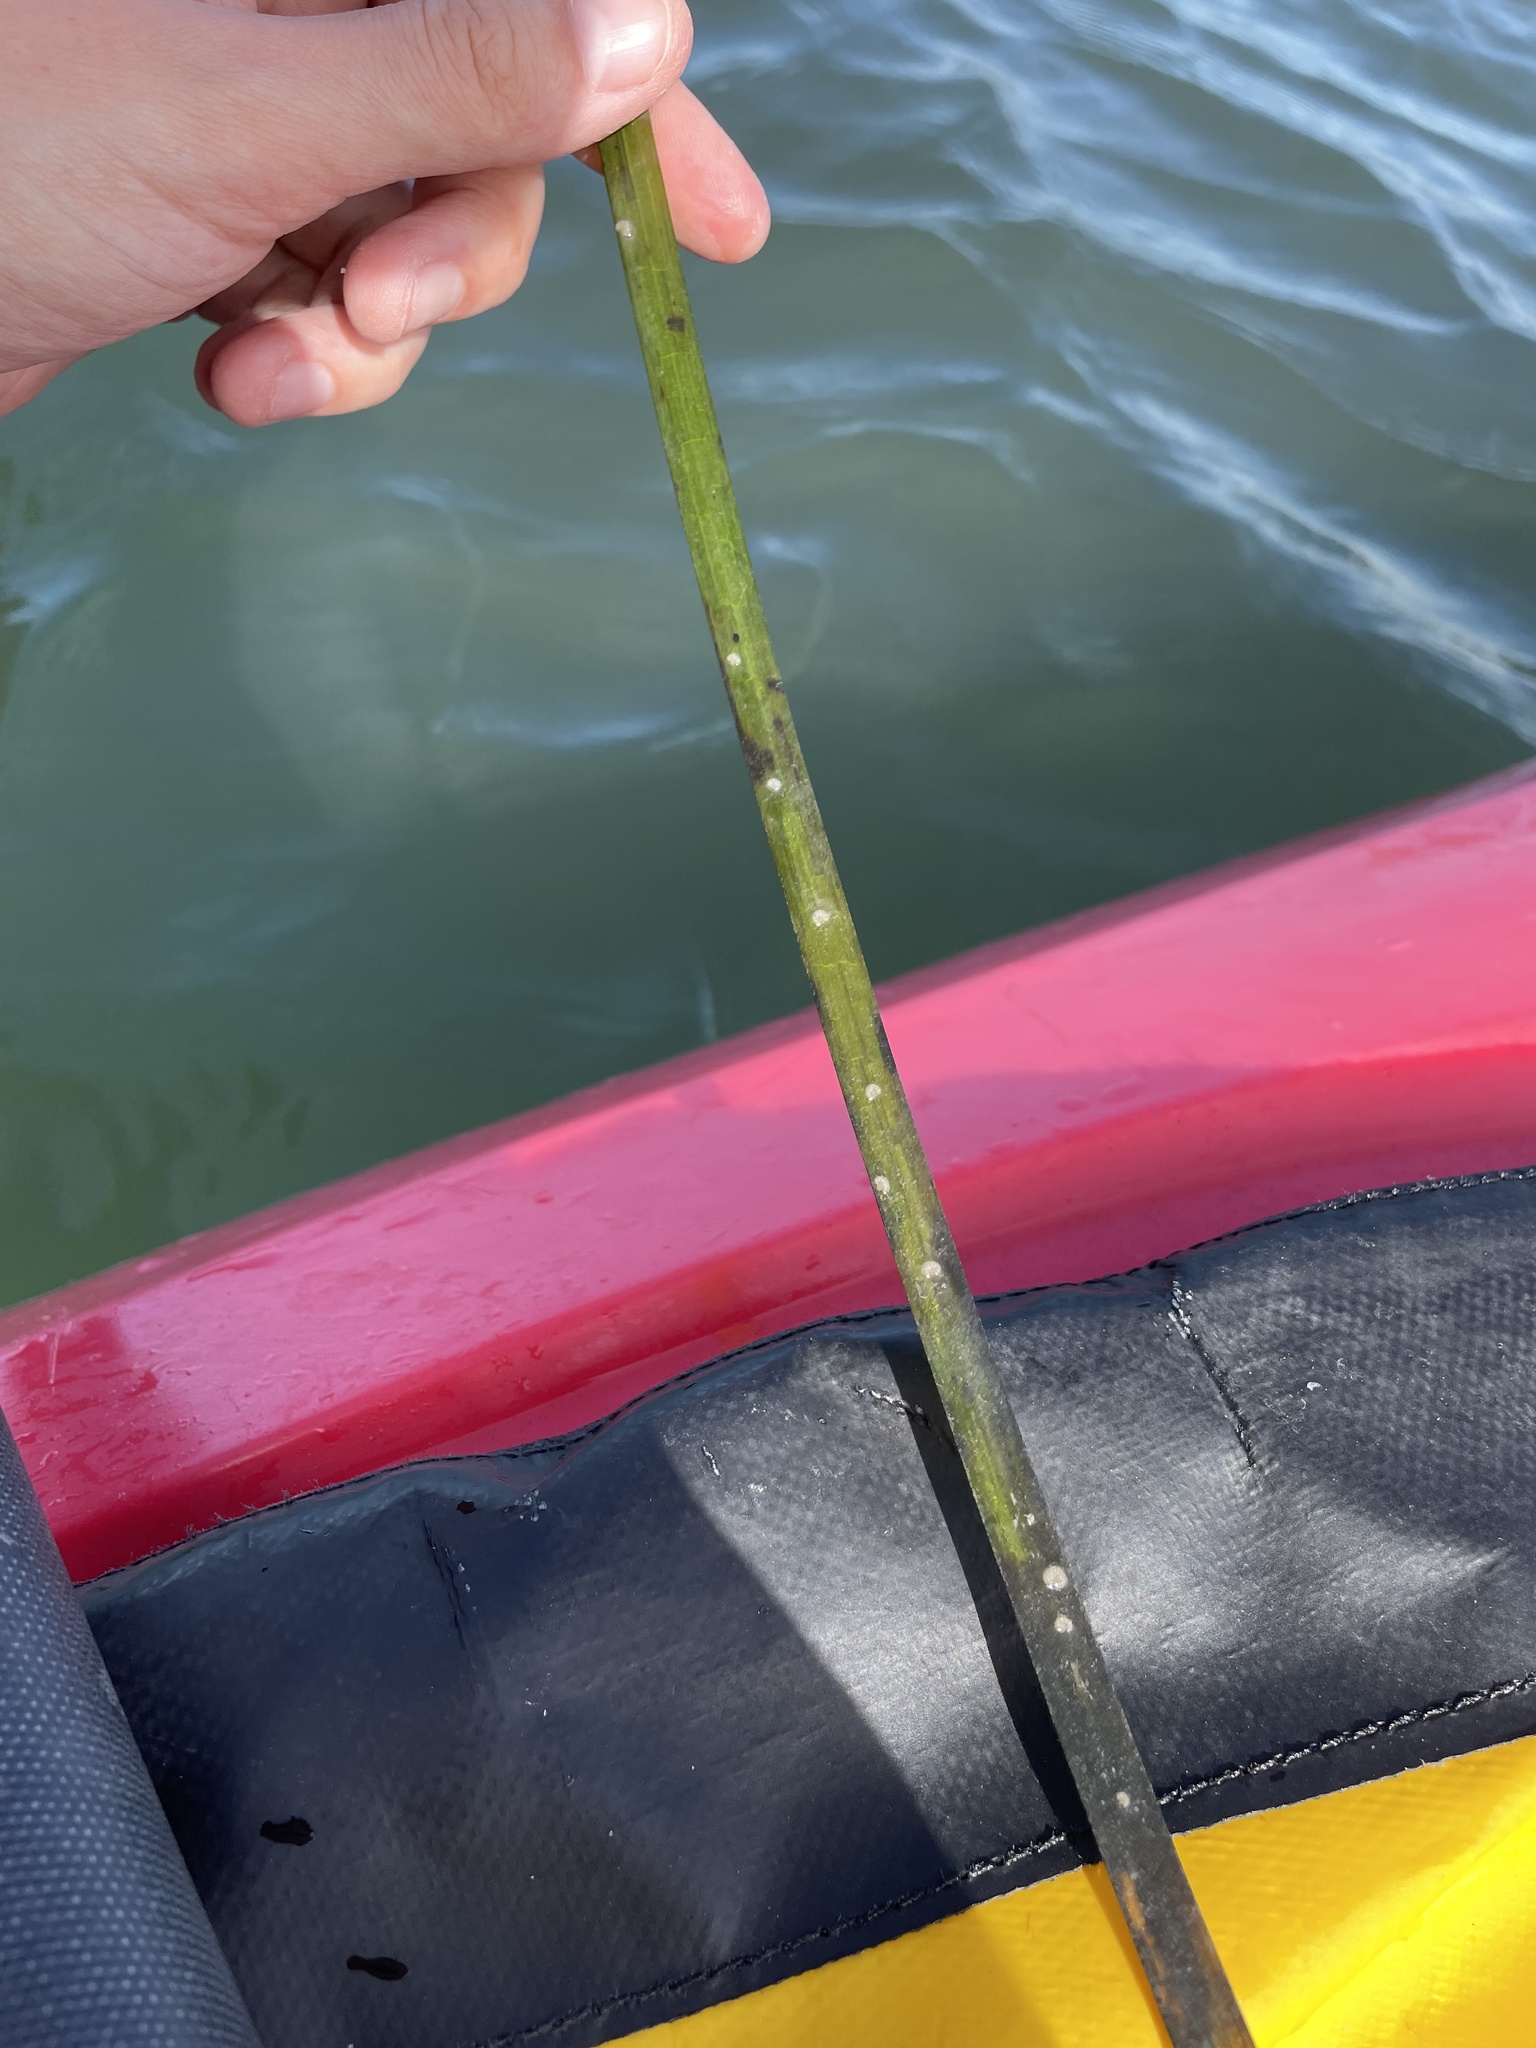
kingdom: Plantae
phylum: Tracheophyta
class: Liliopsida
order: Alismatales
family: Zosteraceae
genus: Zostera
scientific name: Zostera marina
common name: Eelgrass
